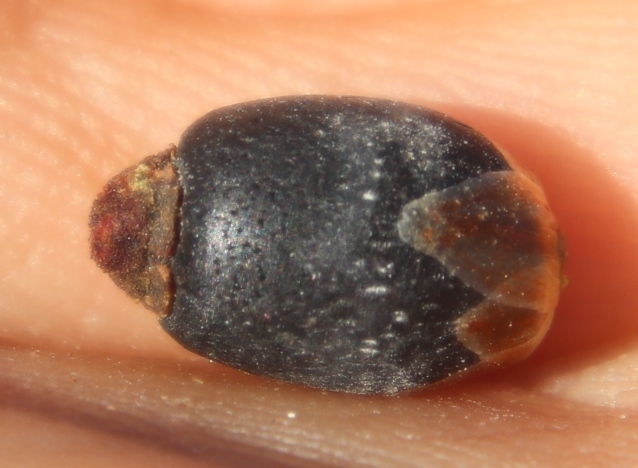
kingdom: Plantae
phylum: Tracheophyta
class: Liliopsida
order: Poales
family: Restionaceae
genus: Willdenowia
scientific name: Willdenowia incurvata
